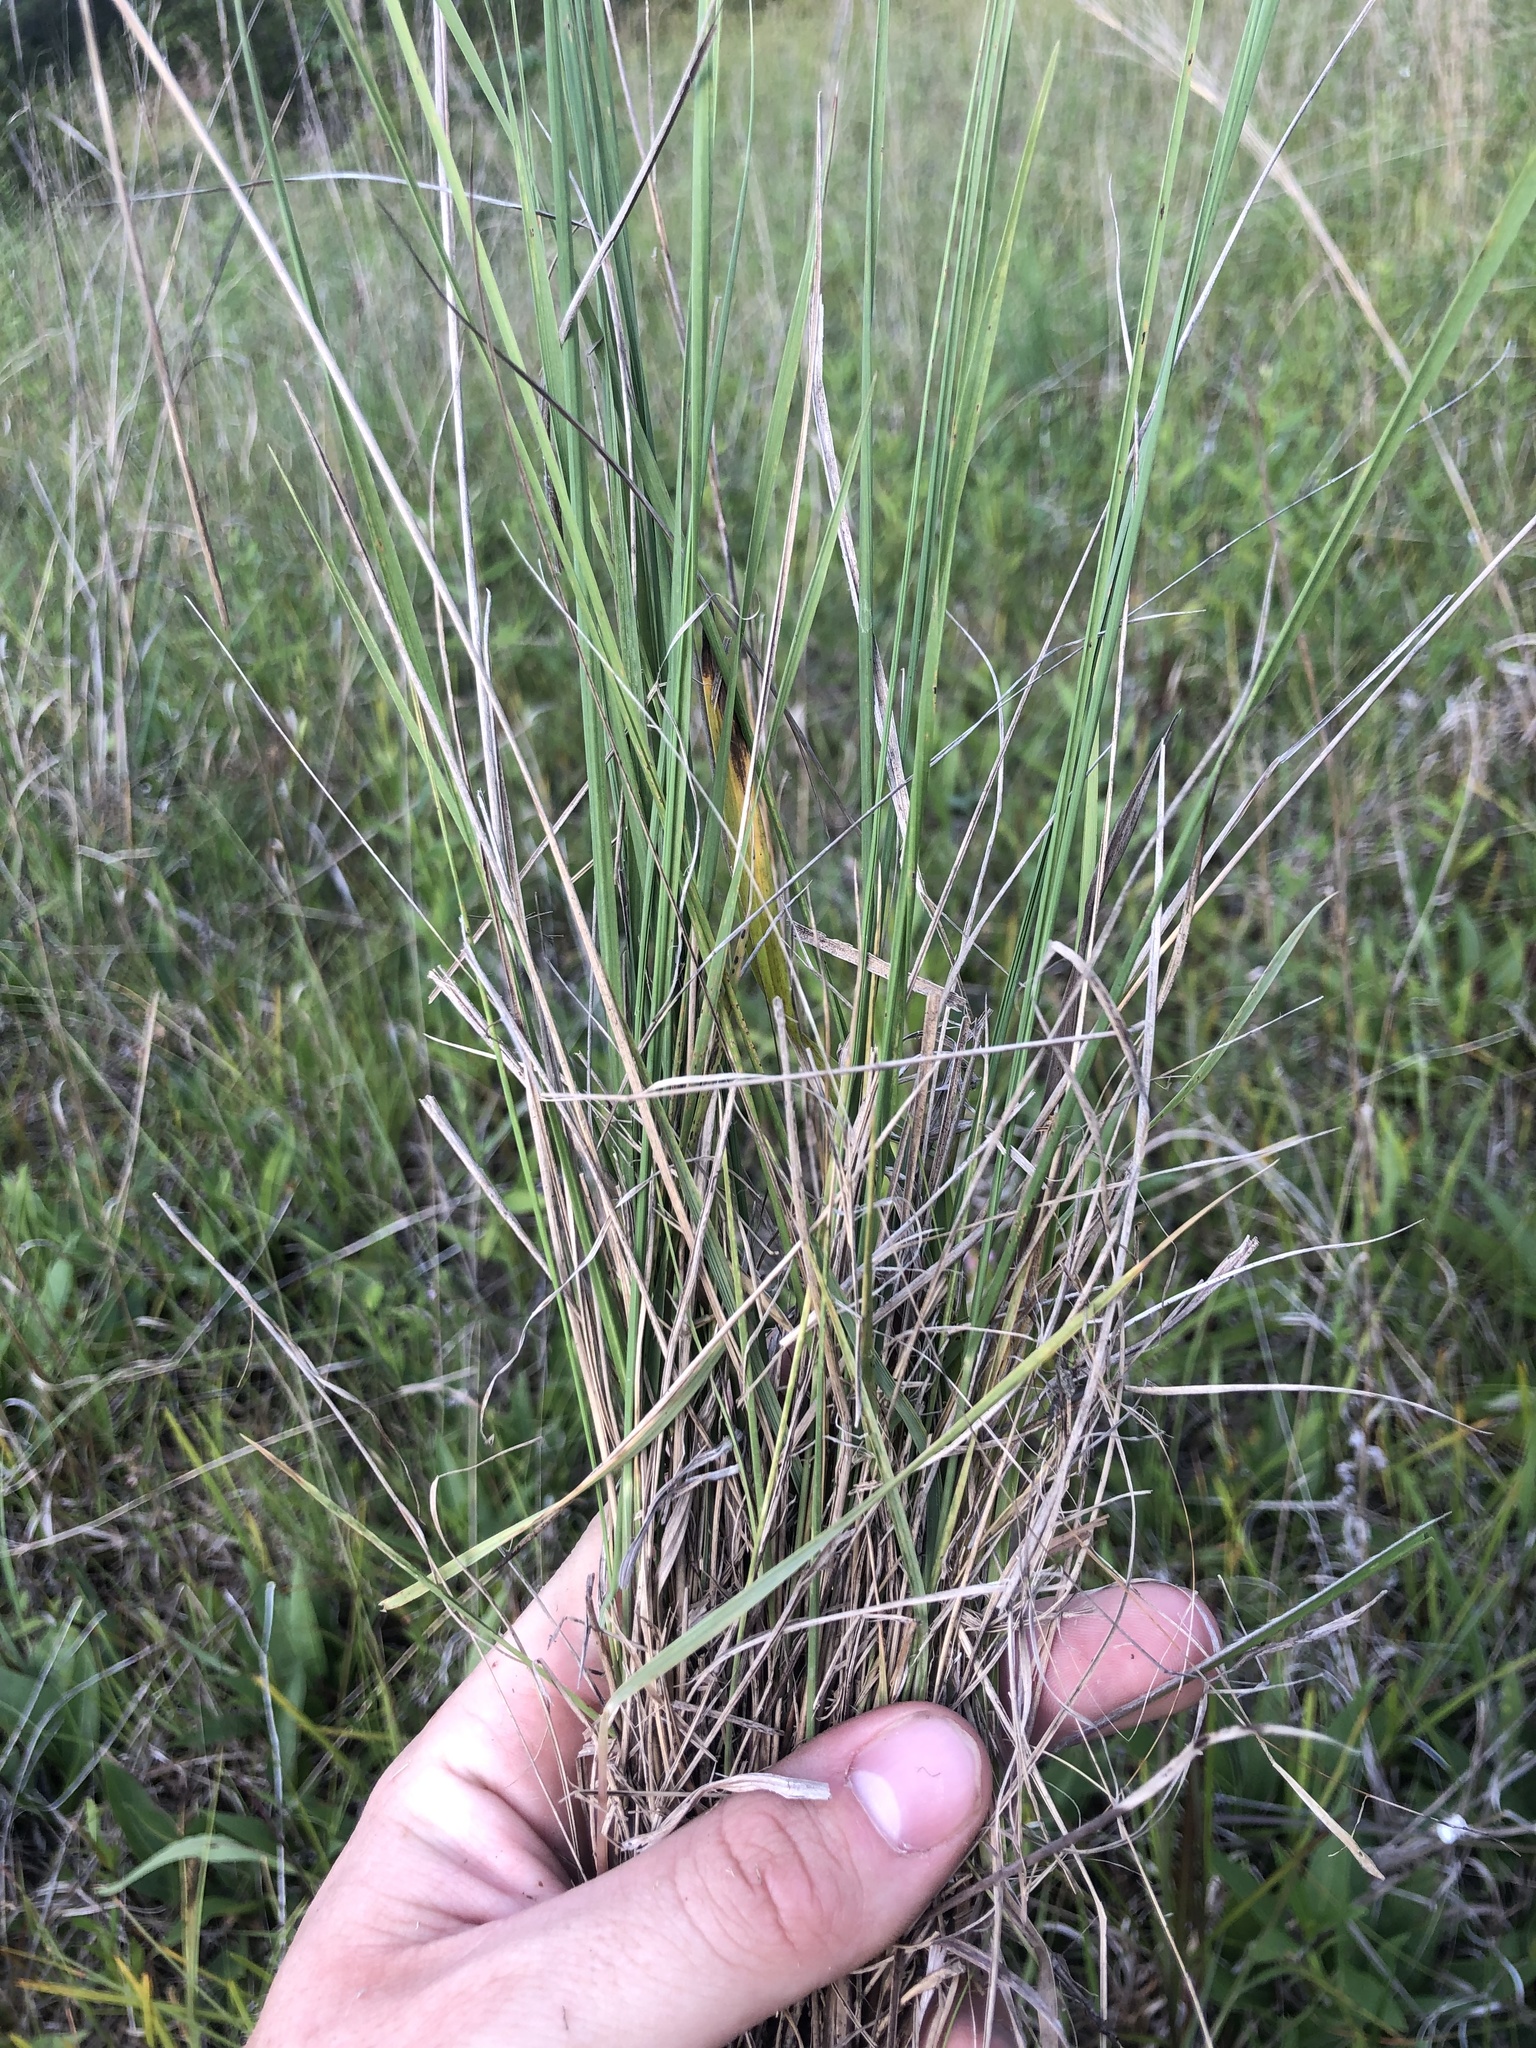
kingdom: Plantae
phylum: Tracheophyta
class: Liliopsida
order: Poales
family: Poaceae
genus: Tridens
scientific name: Tridens flavus
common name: Purpletop
